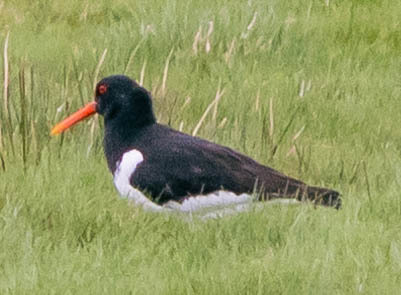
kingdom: Animalia
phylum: Chordata
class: Aves
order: Charadriiformes
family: Haematopodidae
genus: Haematopus
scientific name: Haematopus ostralegus
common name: Eurasian oystercatcher
